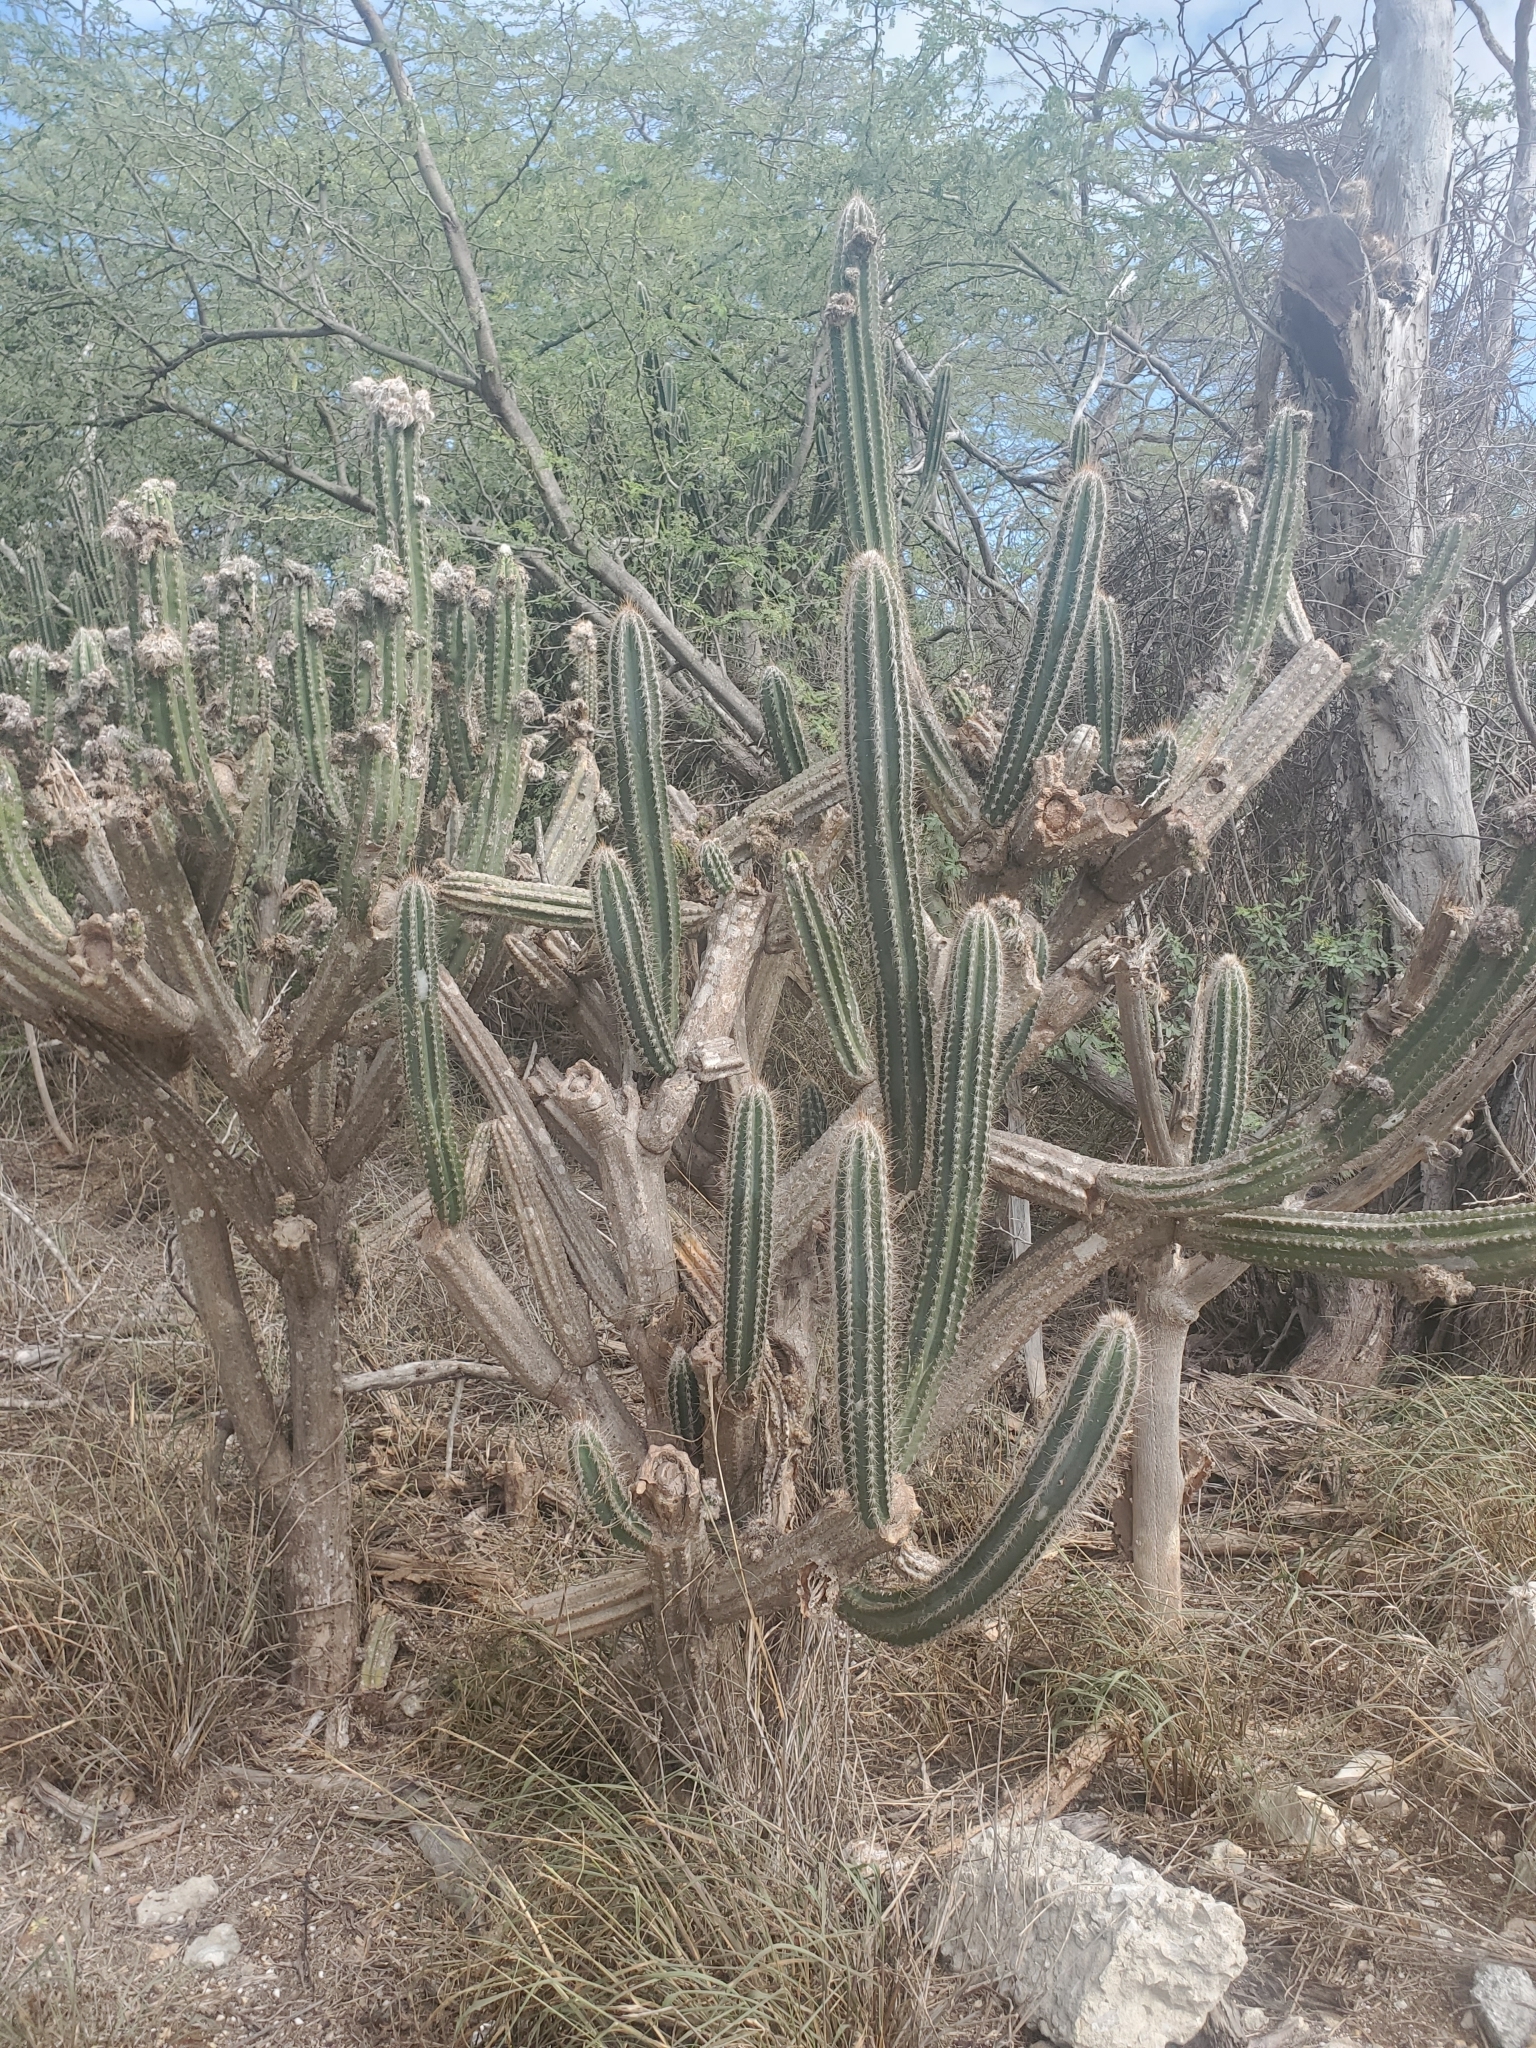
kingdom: Plantae
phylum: Tracheophyta
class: Magnoliopsida
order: Caryophyllales
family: Cactaceae
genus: Pilosocereus
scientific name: Pilosocereus armatus
